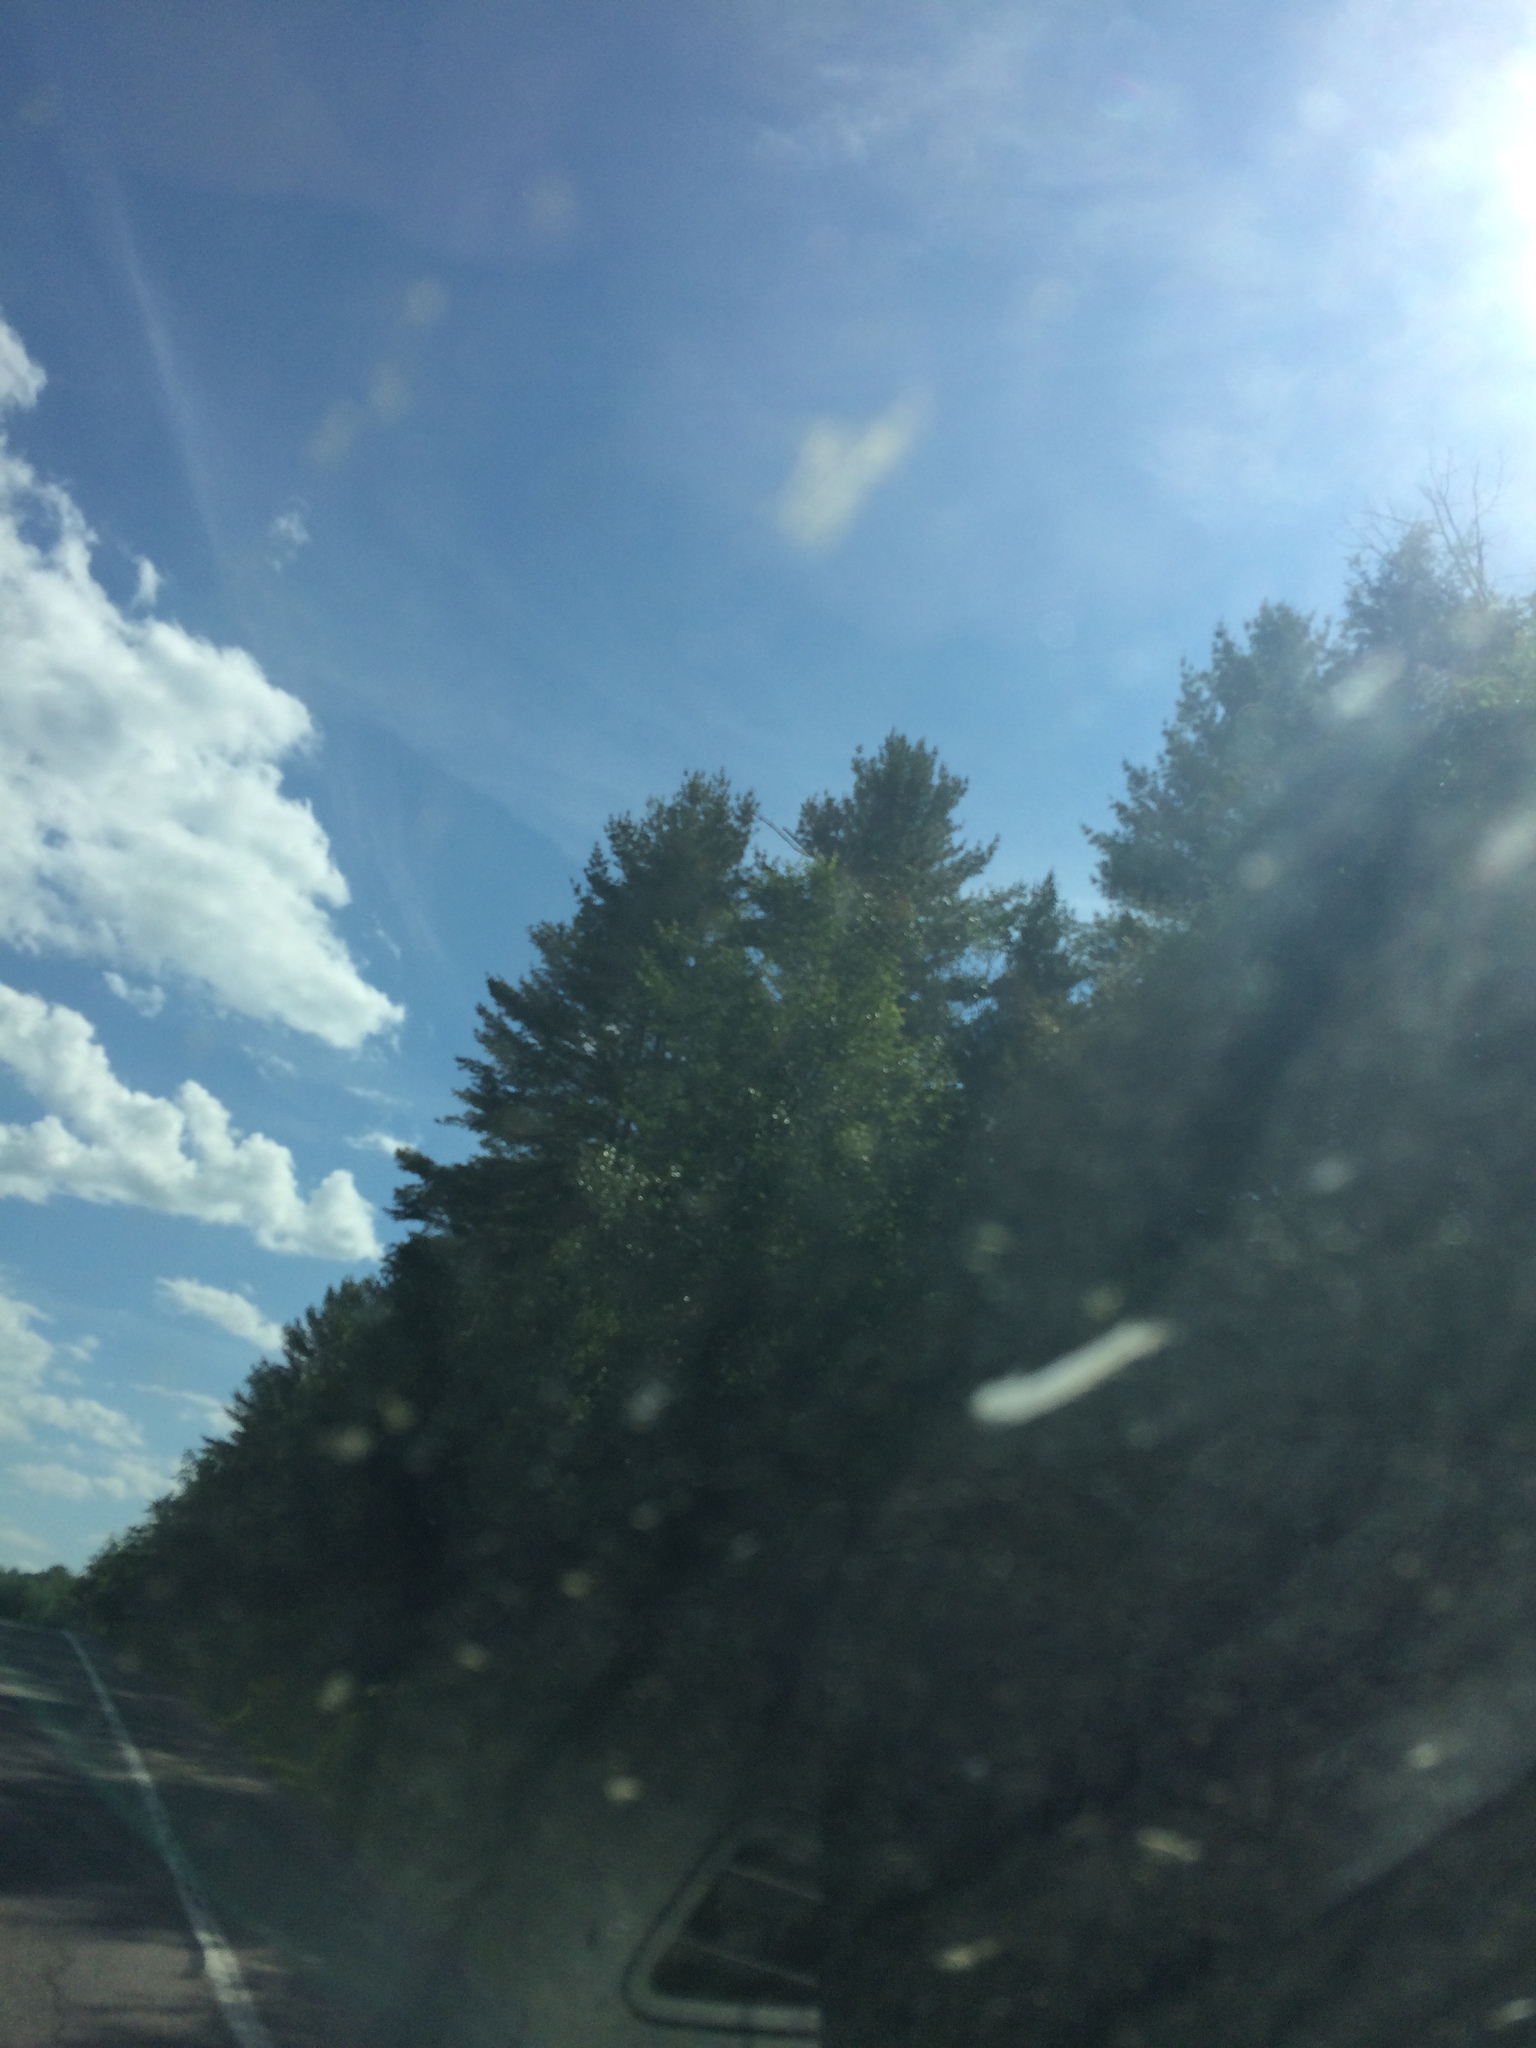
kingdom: Plantae
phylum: Tracheophyta
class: Pinopsida
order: Pinales
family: Pinaceae
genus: Pinus
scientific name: Pinus strobus
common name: Weymouth pine
